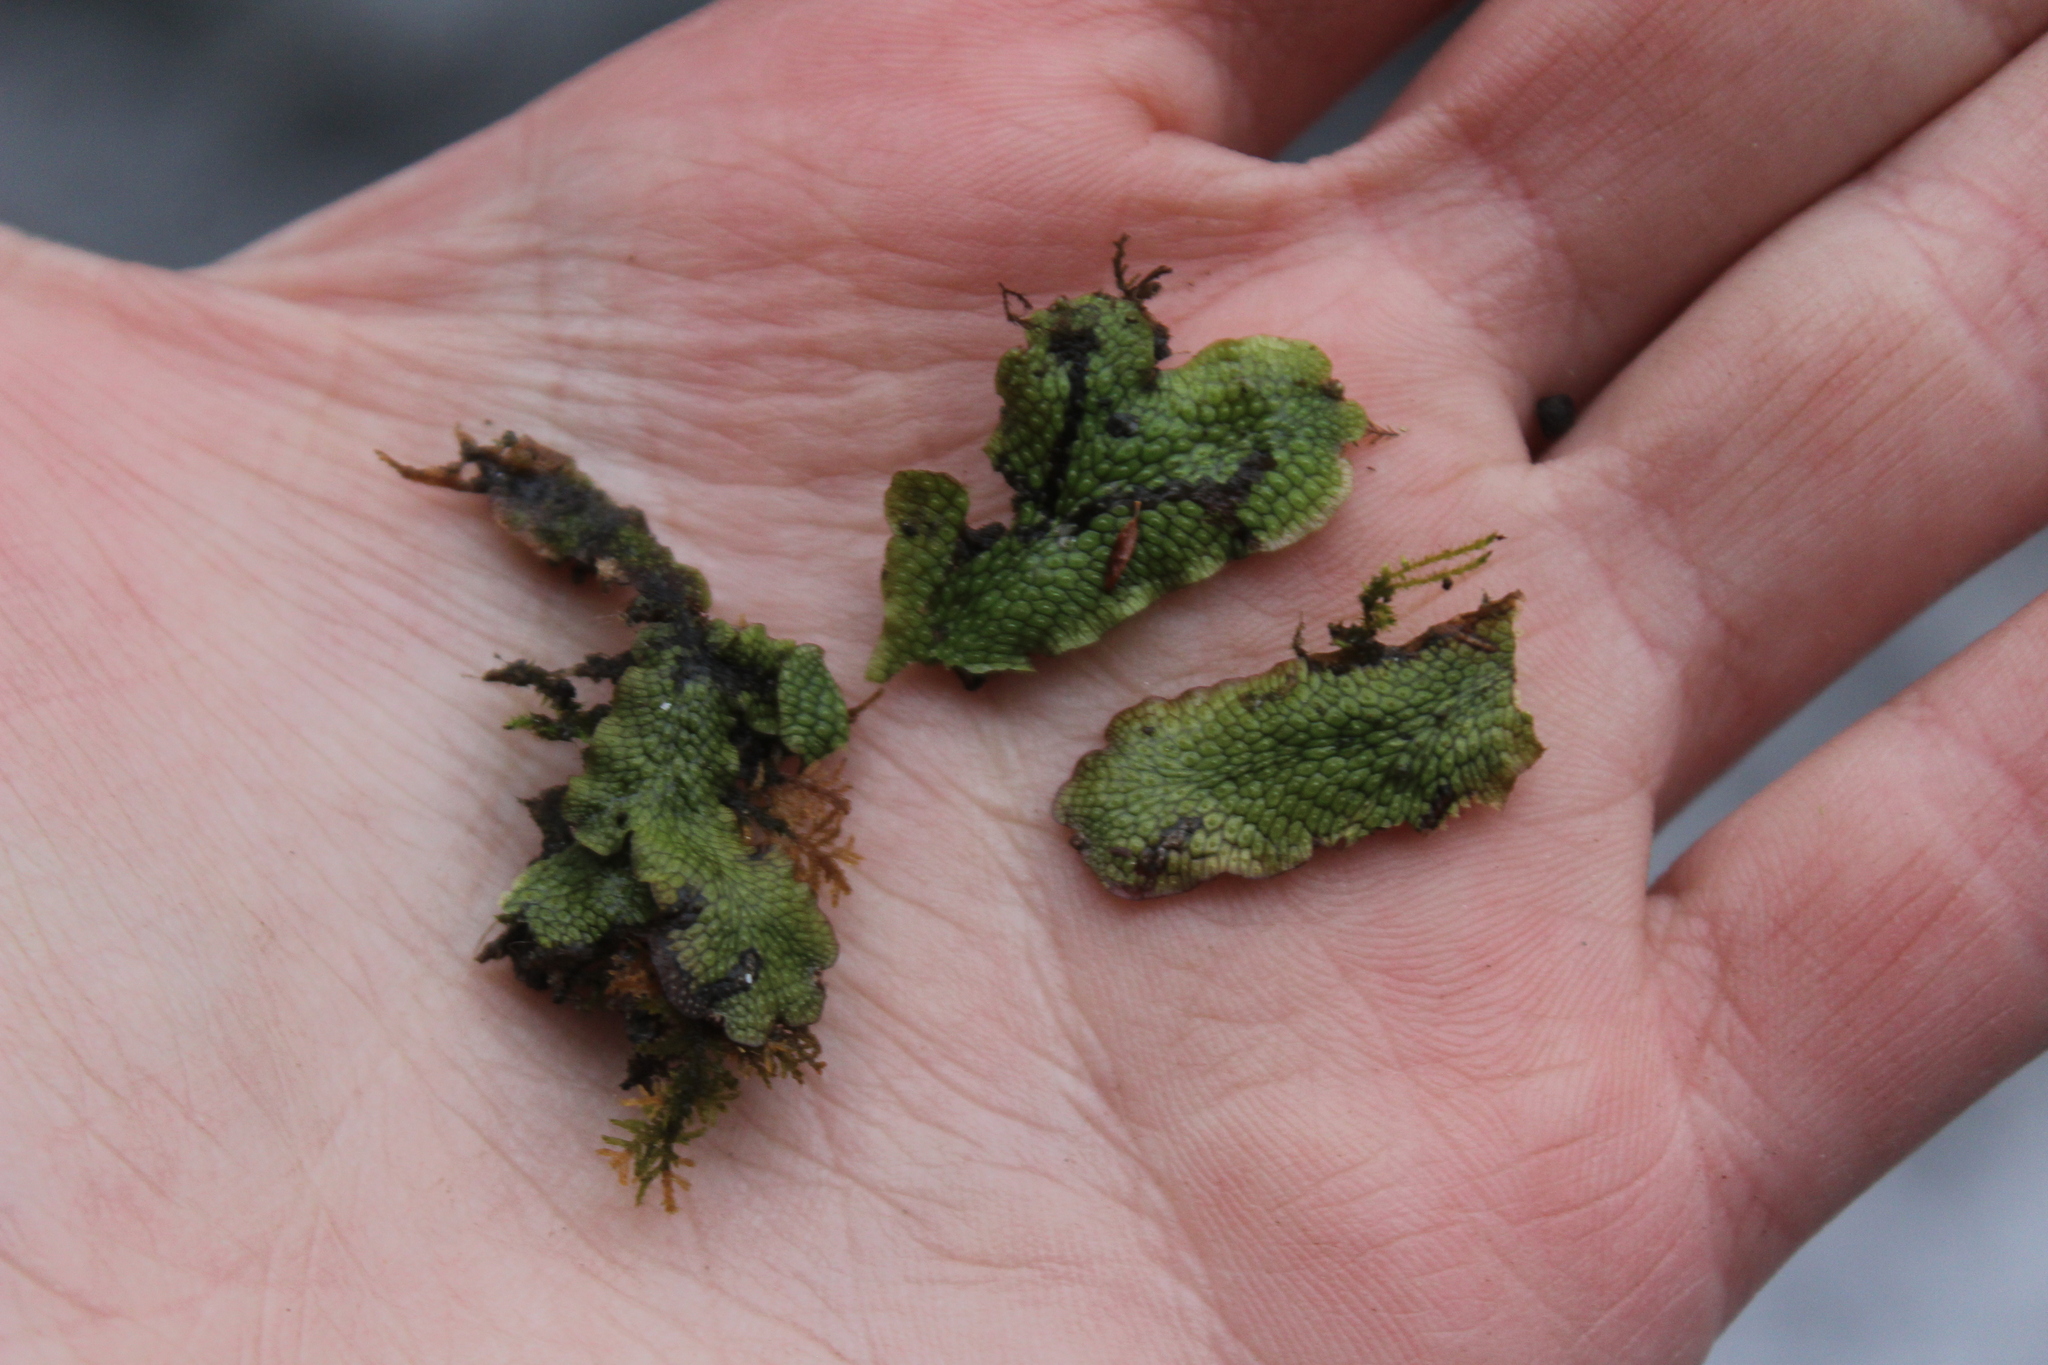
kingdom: Plantae
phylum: Marchantiophyta
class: Marchantiopsida
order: Marchantiales
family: Conocephalaceae
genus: Conocephalum
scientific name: Conocephalum salebrosum
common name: Cat-tongue liverwort
